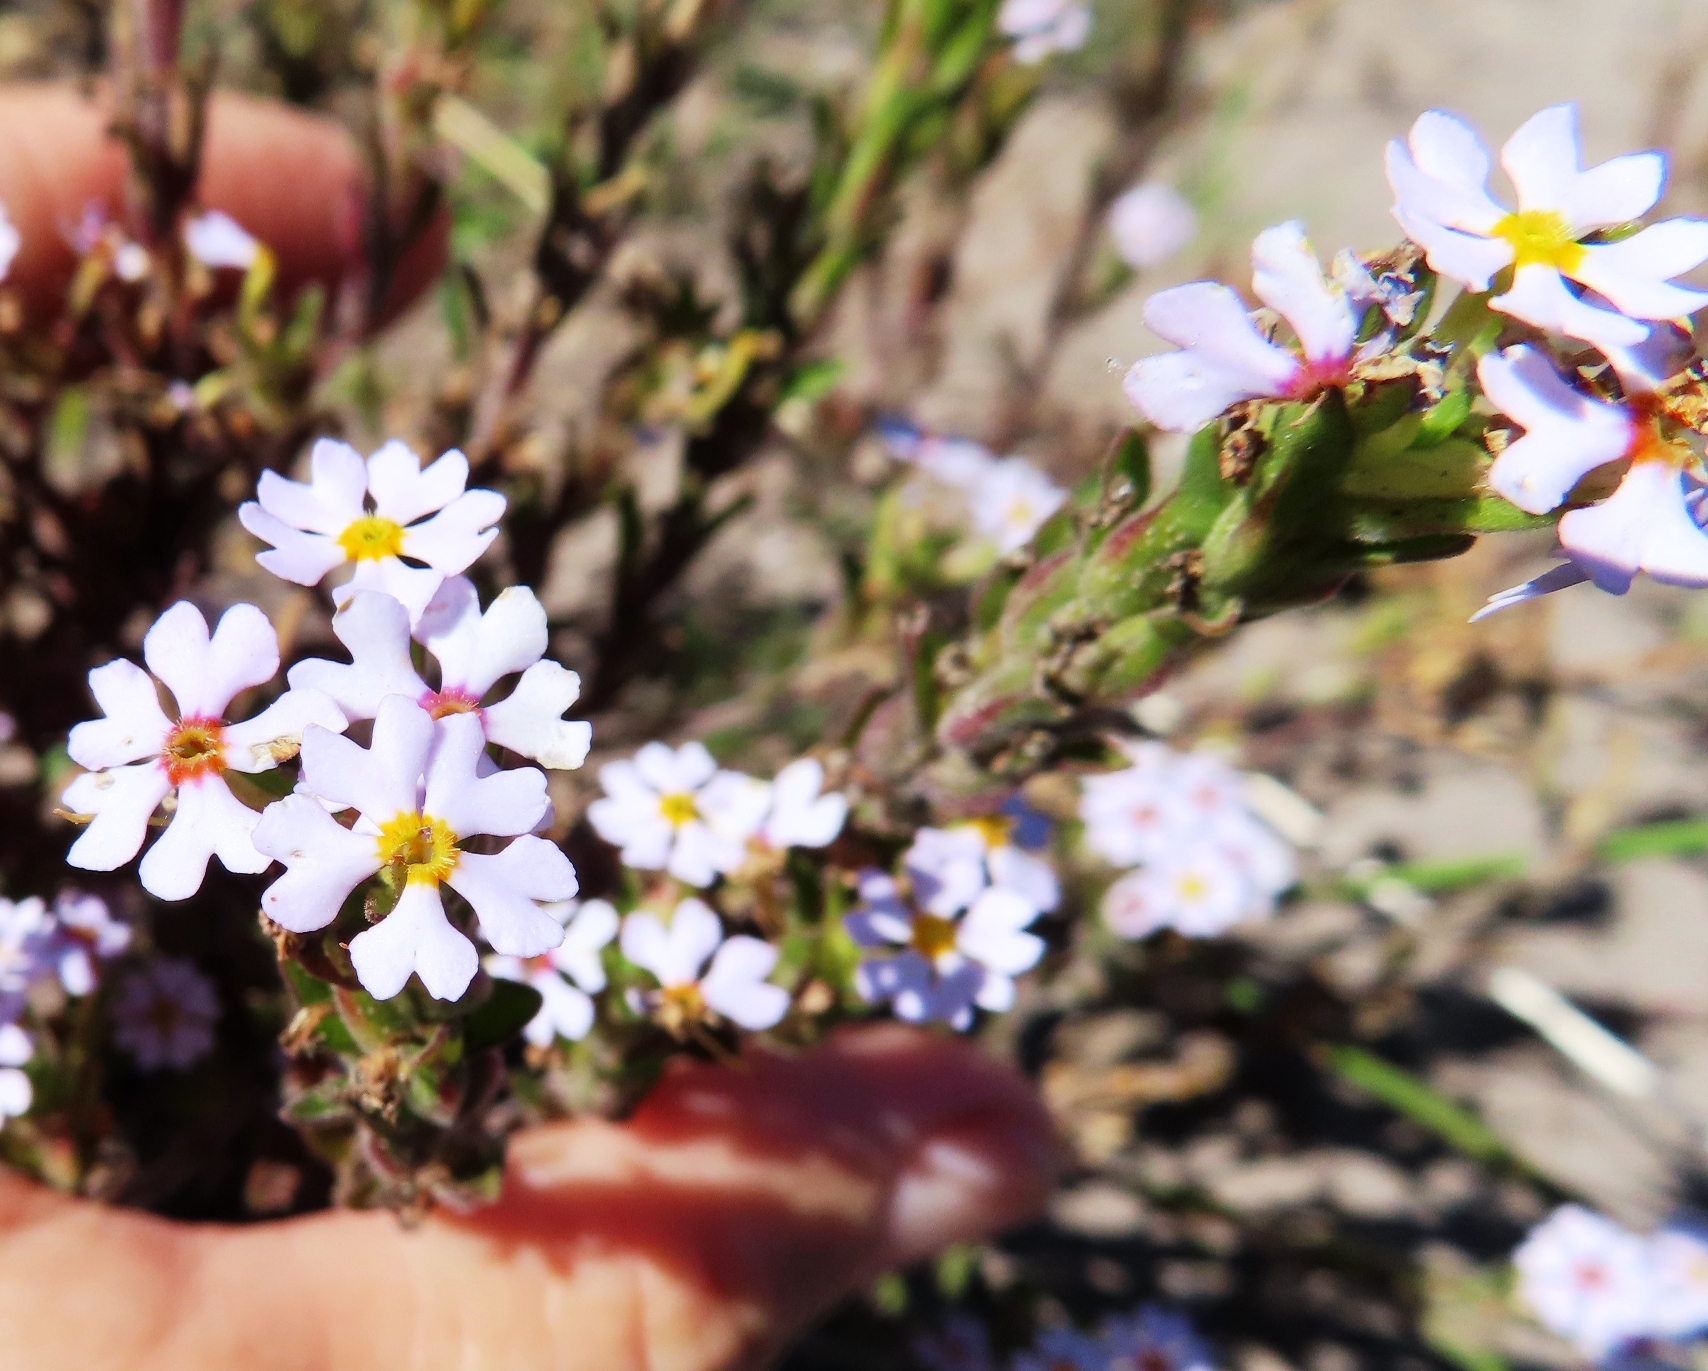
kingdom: Plantae
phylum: Tracheophyta
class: Magnoliopsida
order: Lamiales
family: Scrophulariaceae
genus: Zaluzianskya
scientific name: Zaluzianskya villosa
